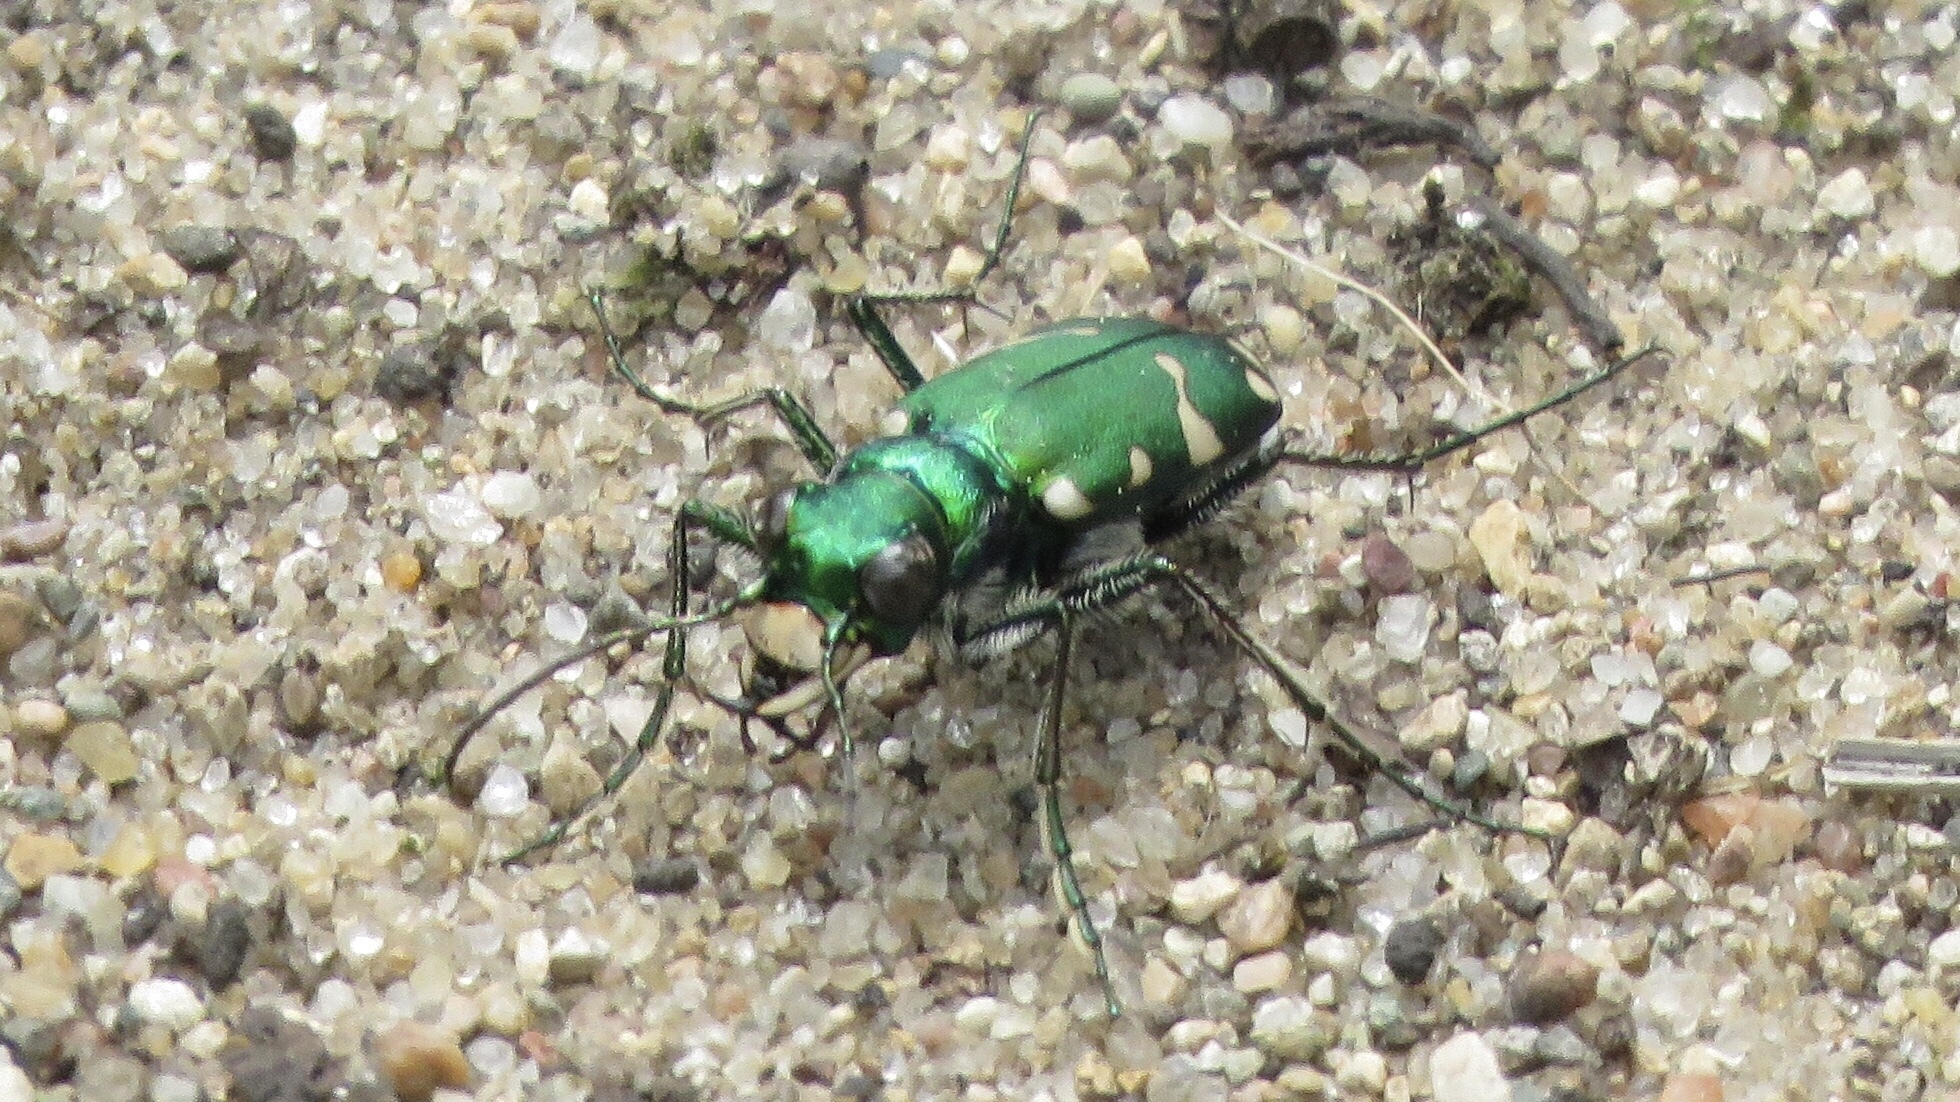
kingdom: Animalia
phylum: Arthropoda
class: Insecta
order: Coleoptera
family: Carabidae
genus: Cicindela
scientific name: Cicindela patruela
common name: Northern barrens tiger beetle
